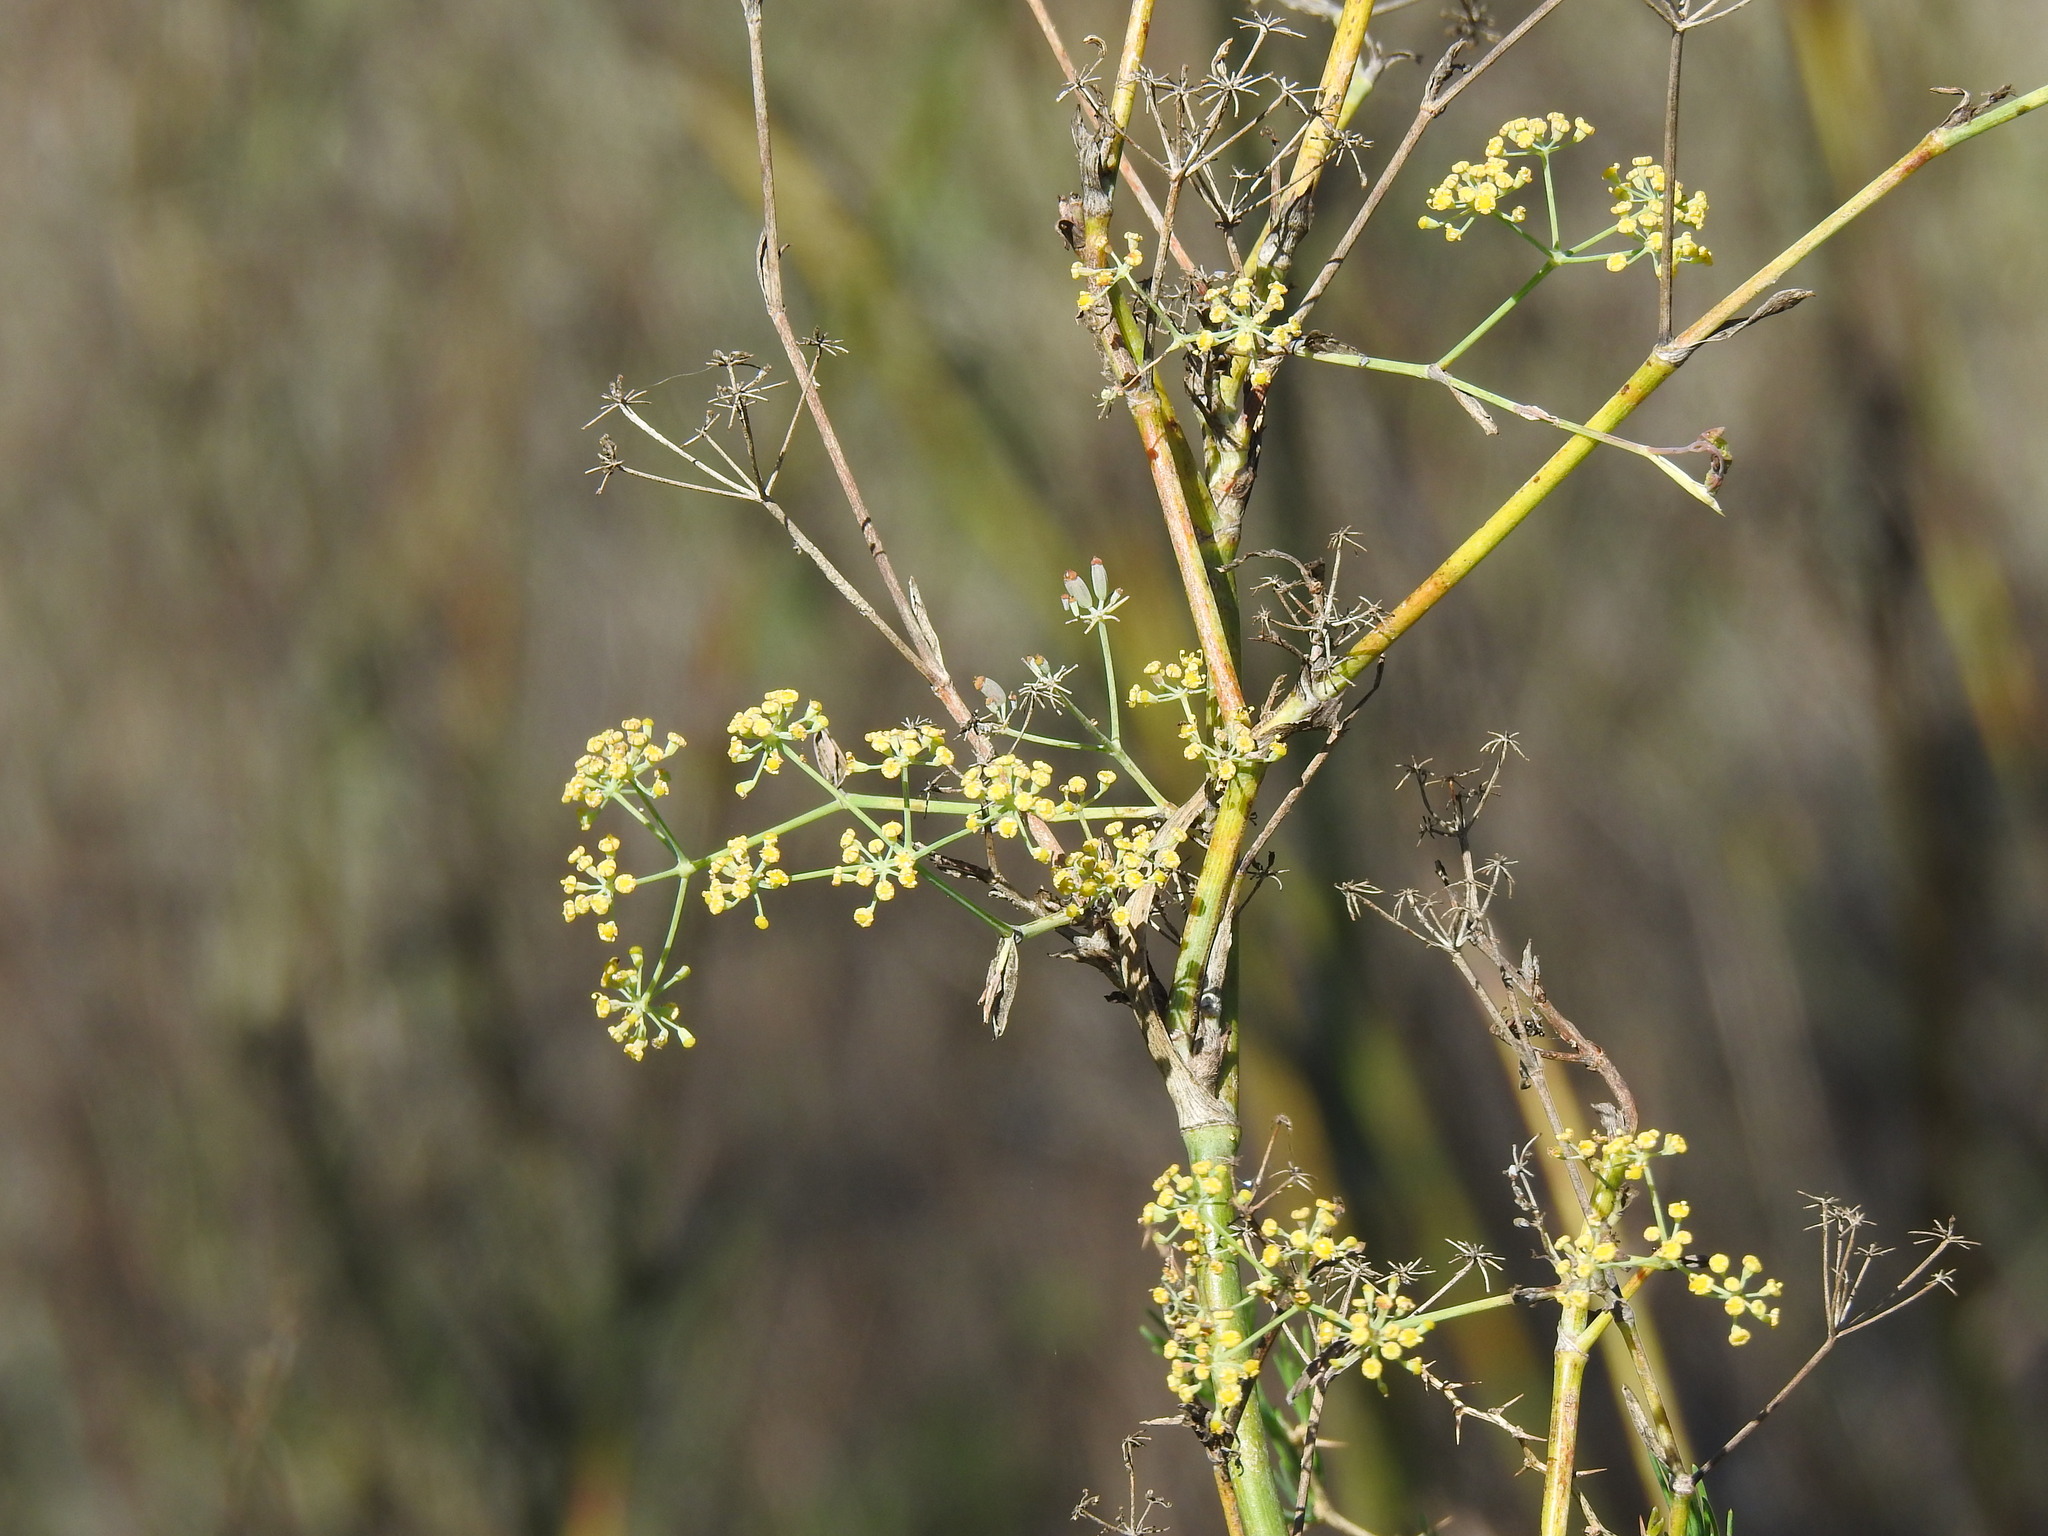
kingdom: Plantae
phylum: Tracheophyta
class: Magnoliopsida
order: Apiales
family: Apiaceae
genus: Foeniculum
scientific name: Foeniculum vulgare
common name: Fennel
